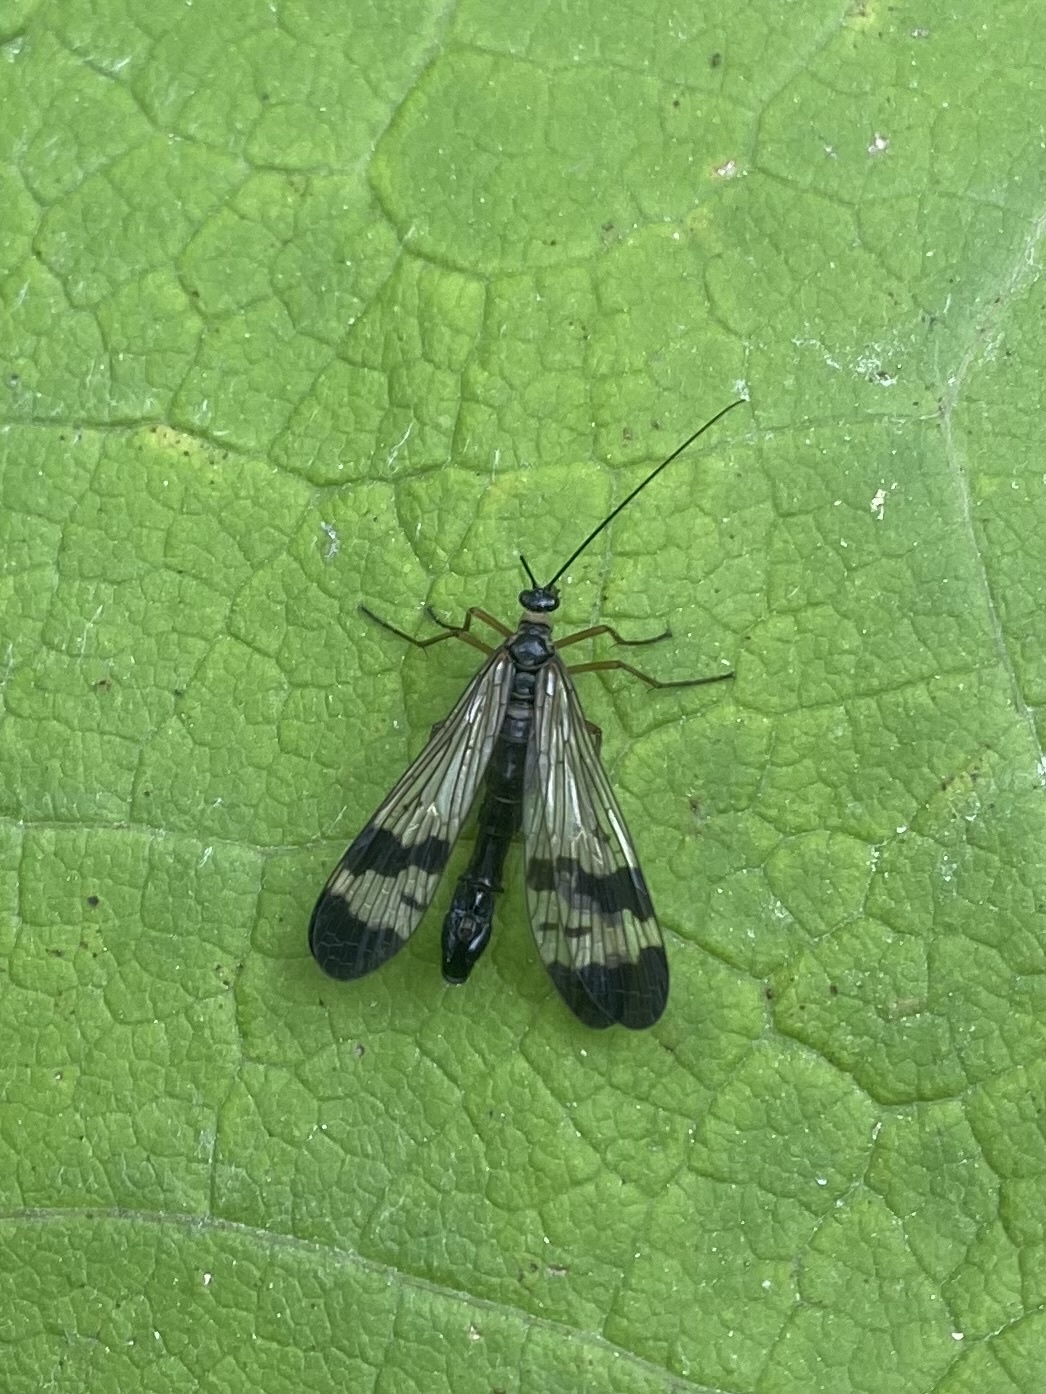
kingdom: Animalia
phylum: Arthropoda
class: Insecta
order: Mecoptera
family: Panorpidae
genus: Panorpa
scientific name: Panorpa orientalis
